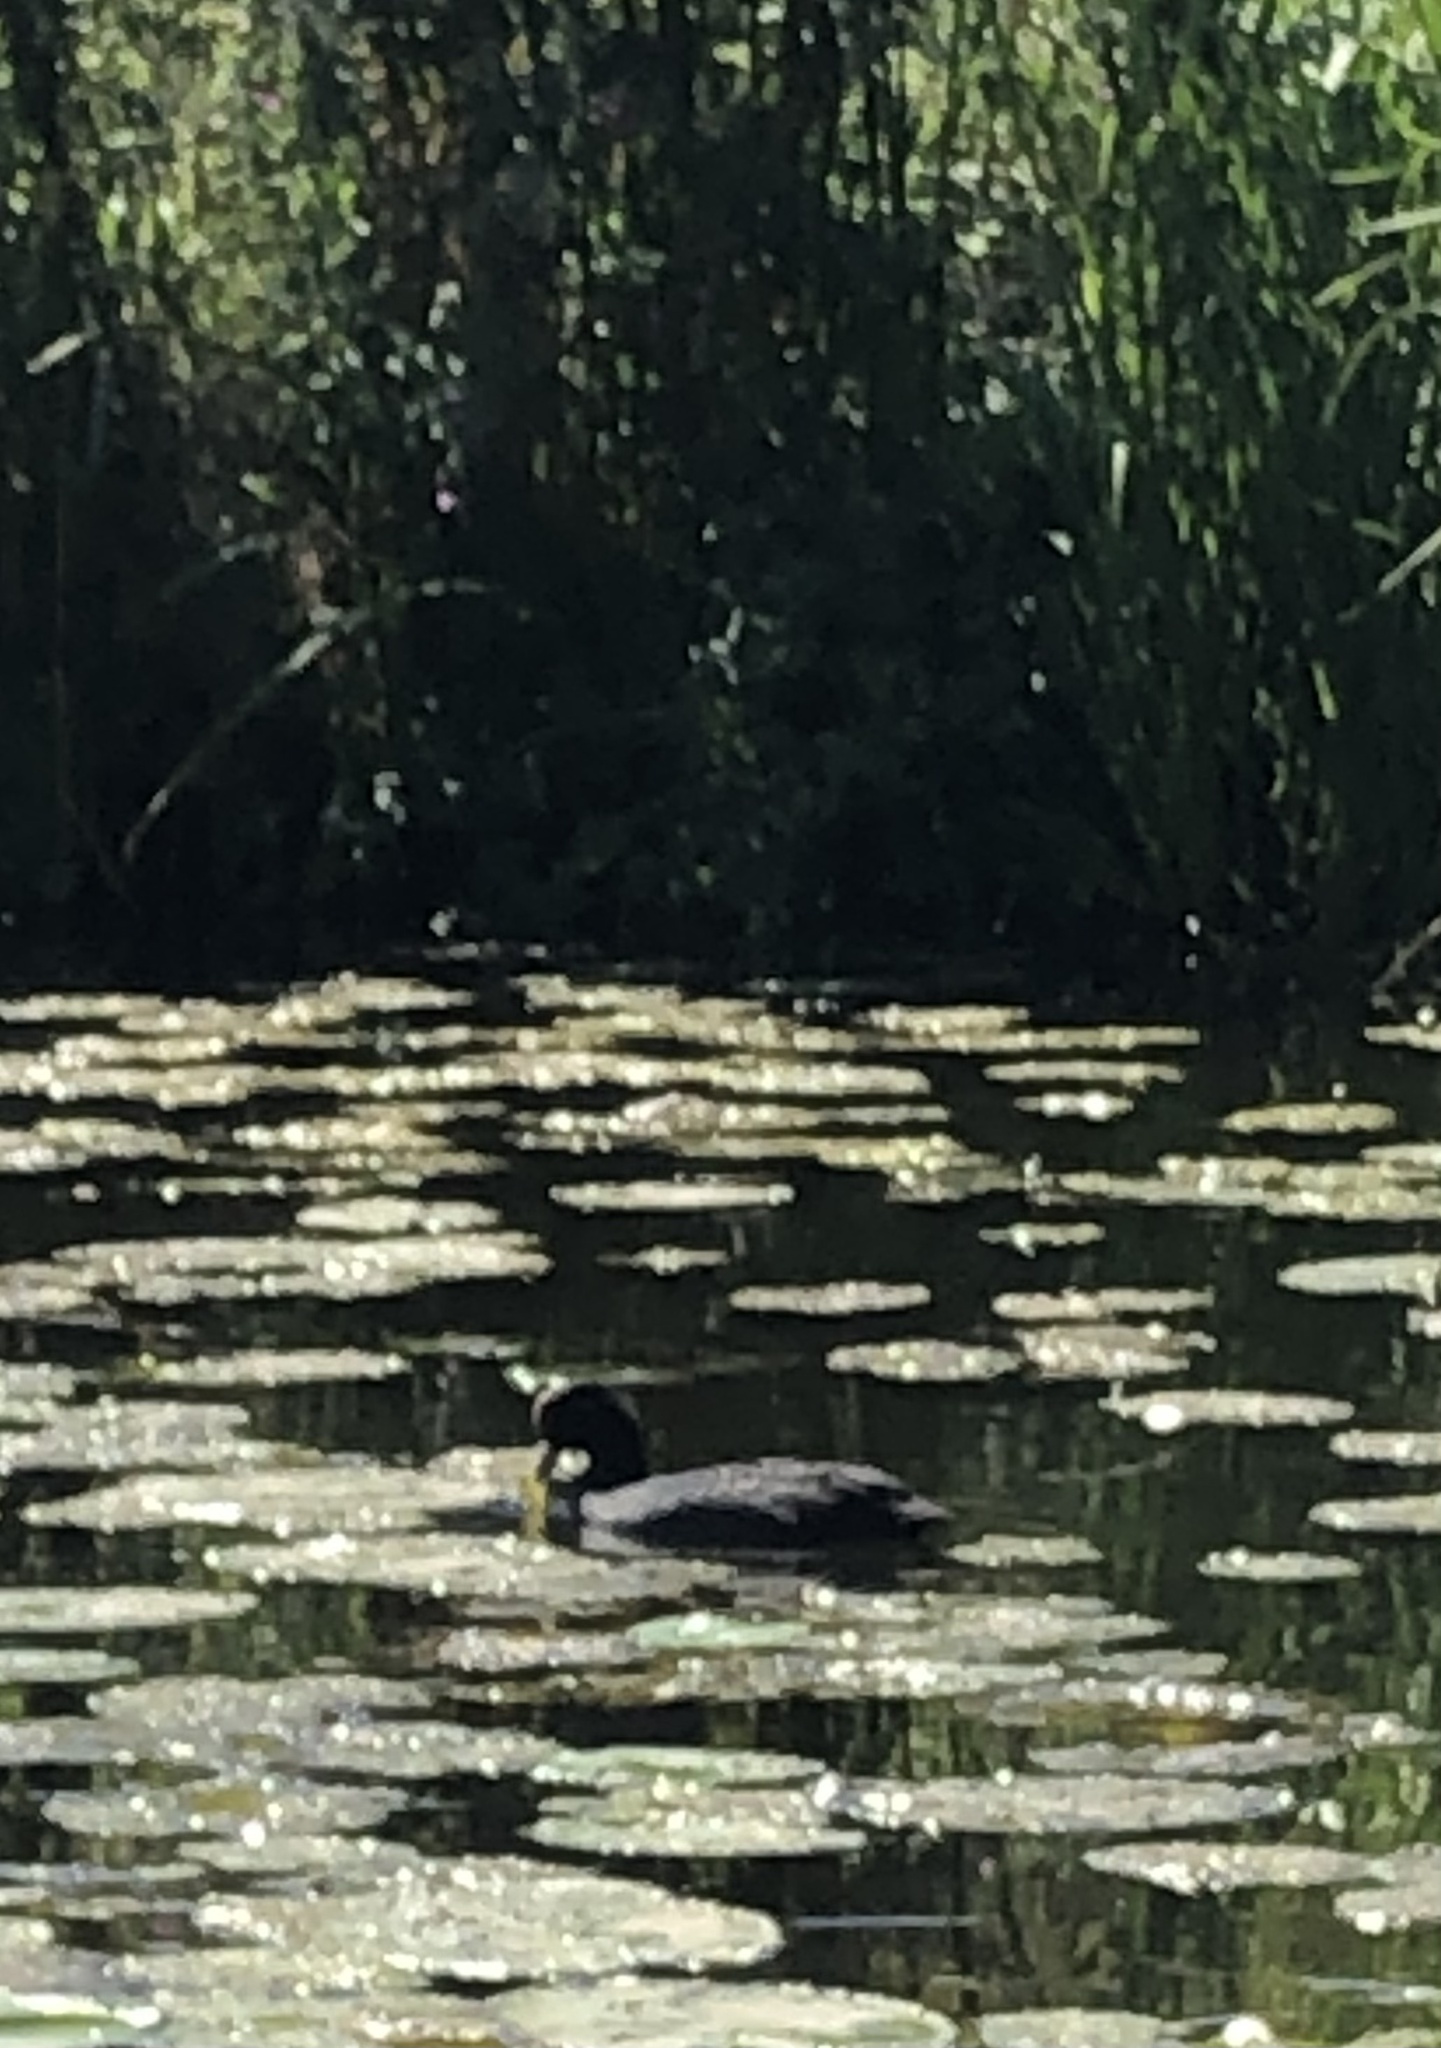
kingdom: Animalia
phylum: Chordata
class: Aves
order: Gruiformes
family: Rallidae
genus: Fulica
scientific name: Fulica atra
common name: Eurasian coot
